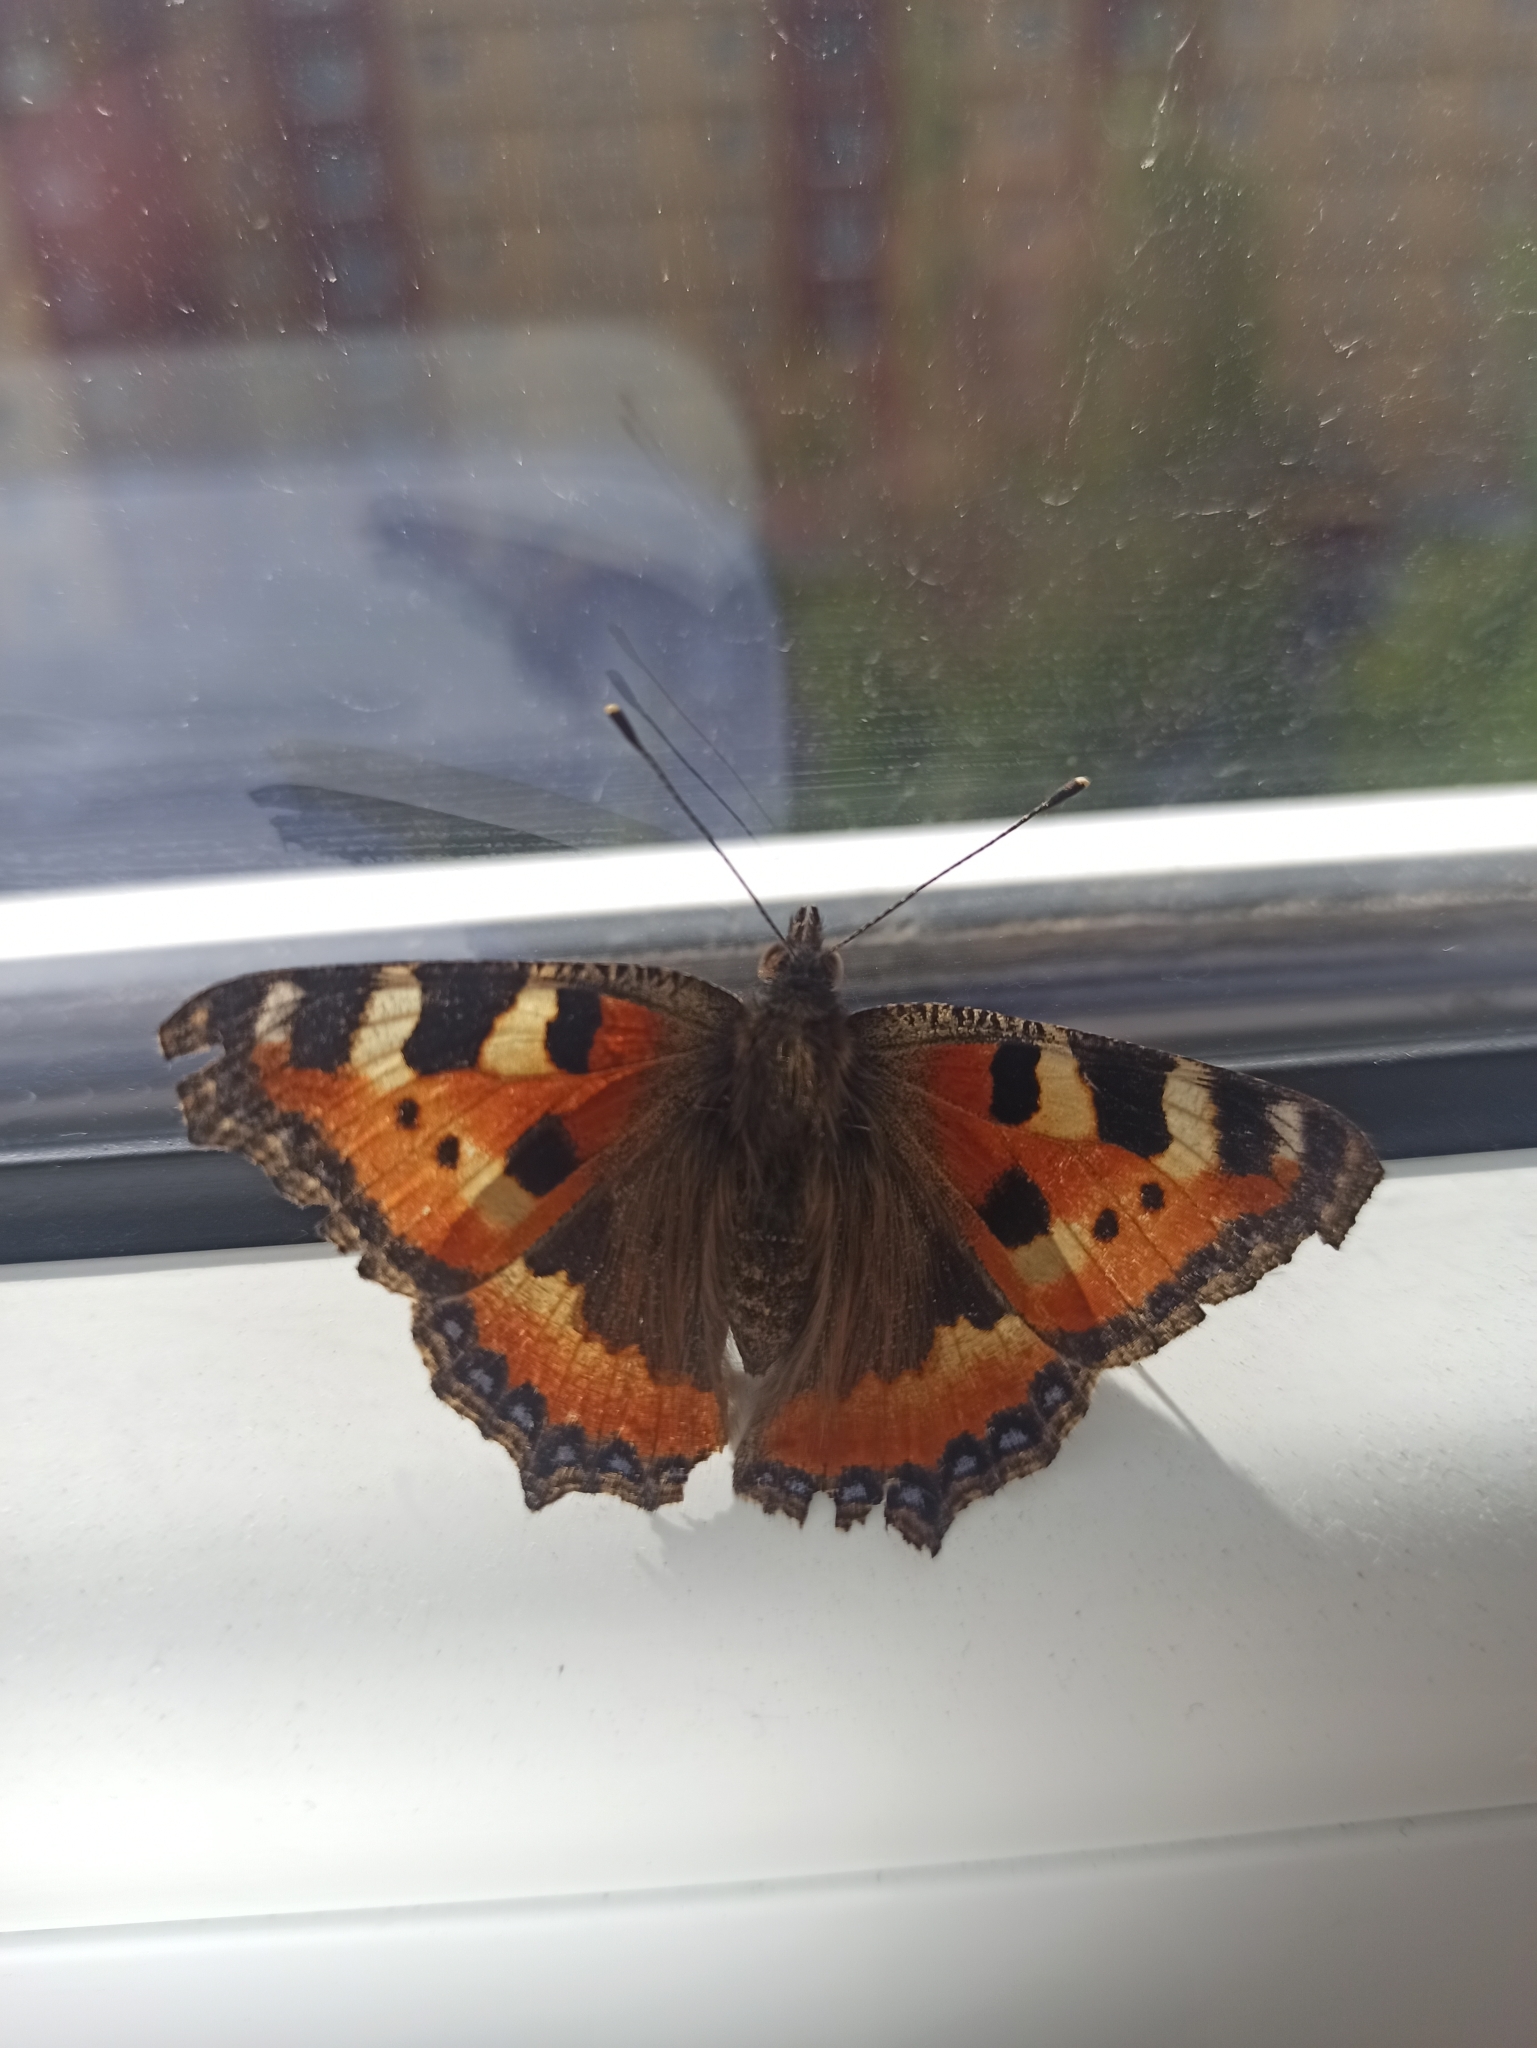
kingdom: Animalia
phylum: Arthropoda
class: Insecta
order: Lepidoptera
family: Nymphalidae
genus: Aglais
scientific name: Aglais urticae
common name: Small tortoiseshell
